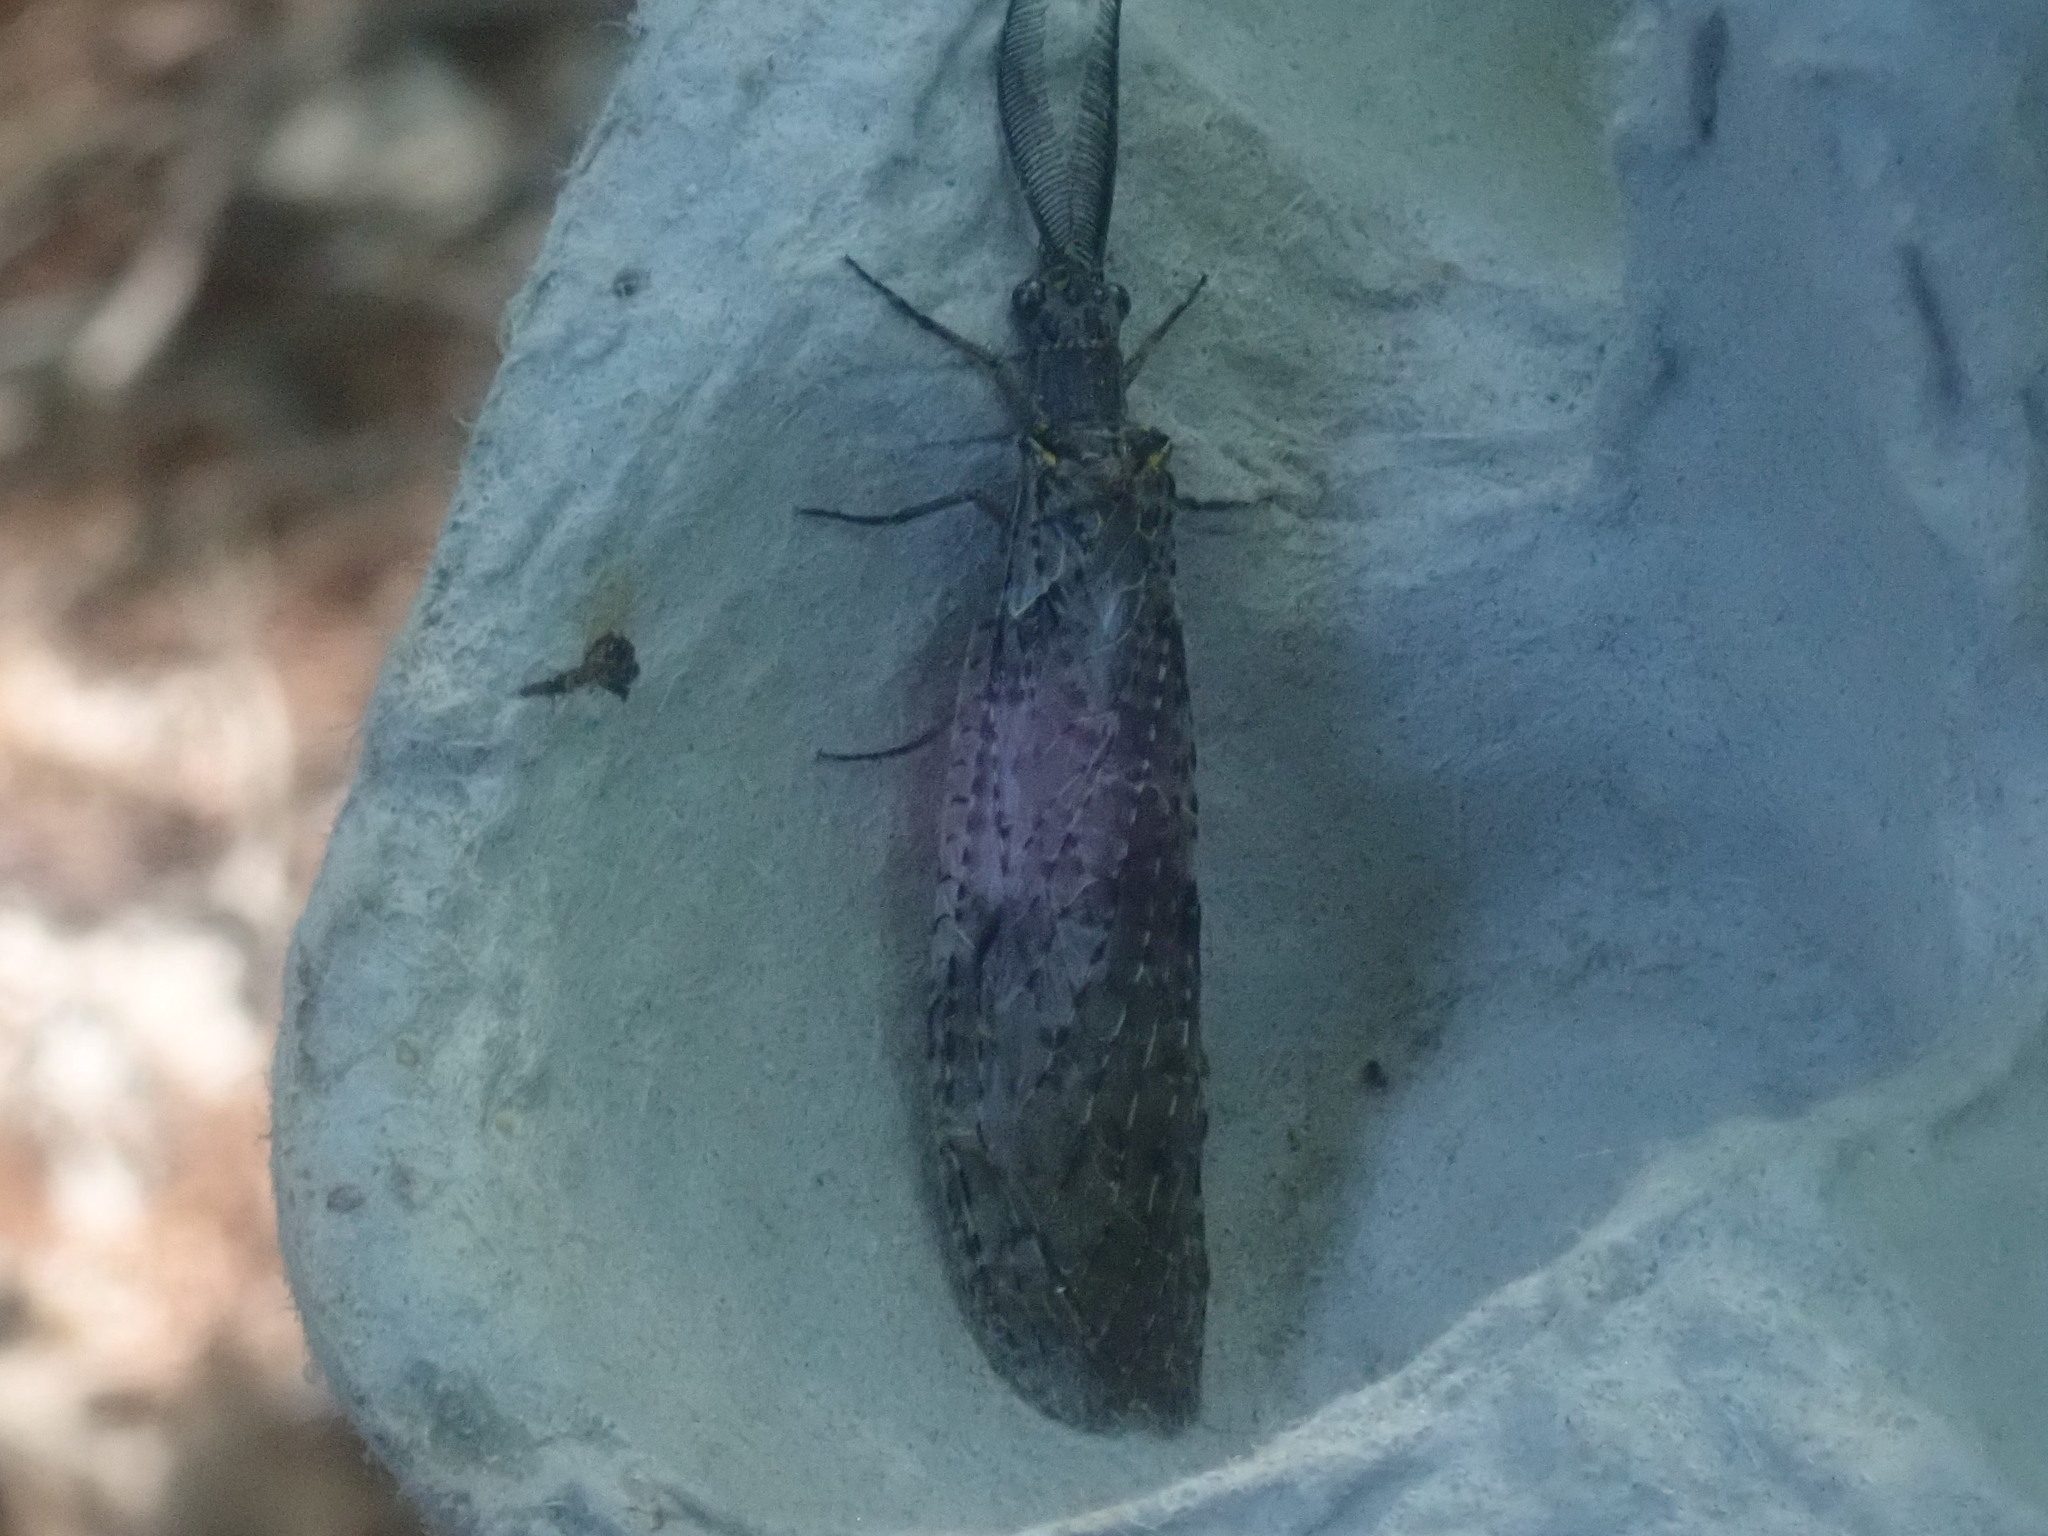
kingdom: Animalia
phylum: Arthropoda
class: Insecta
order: Megaloptera
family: Corydalidae
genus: Chauliodes
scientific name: Chauliodes rastricornis
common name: Spring fishfly
